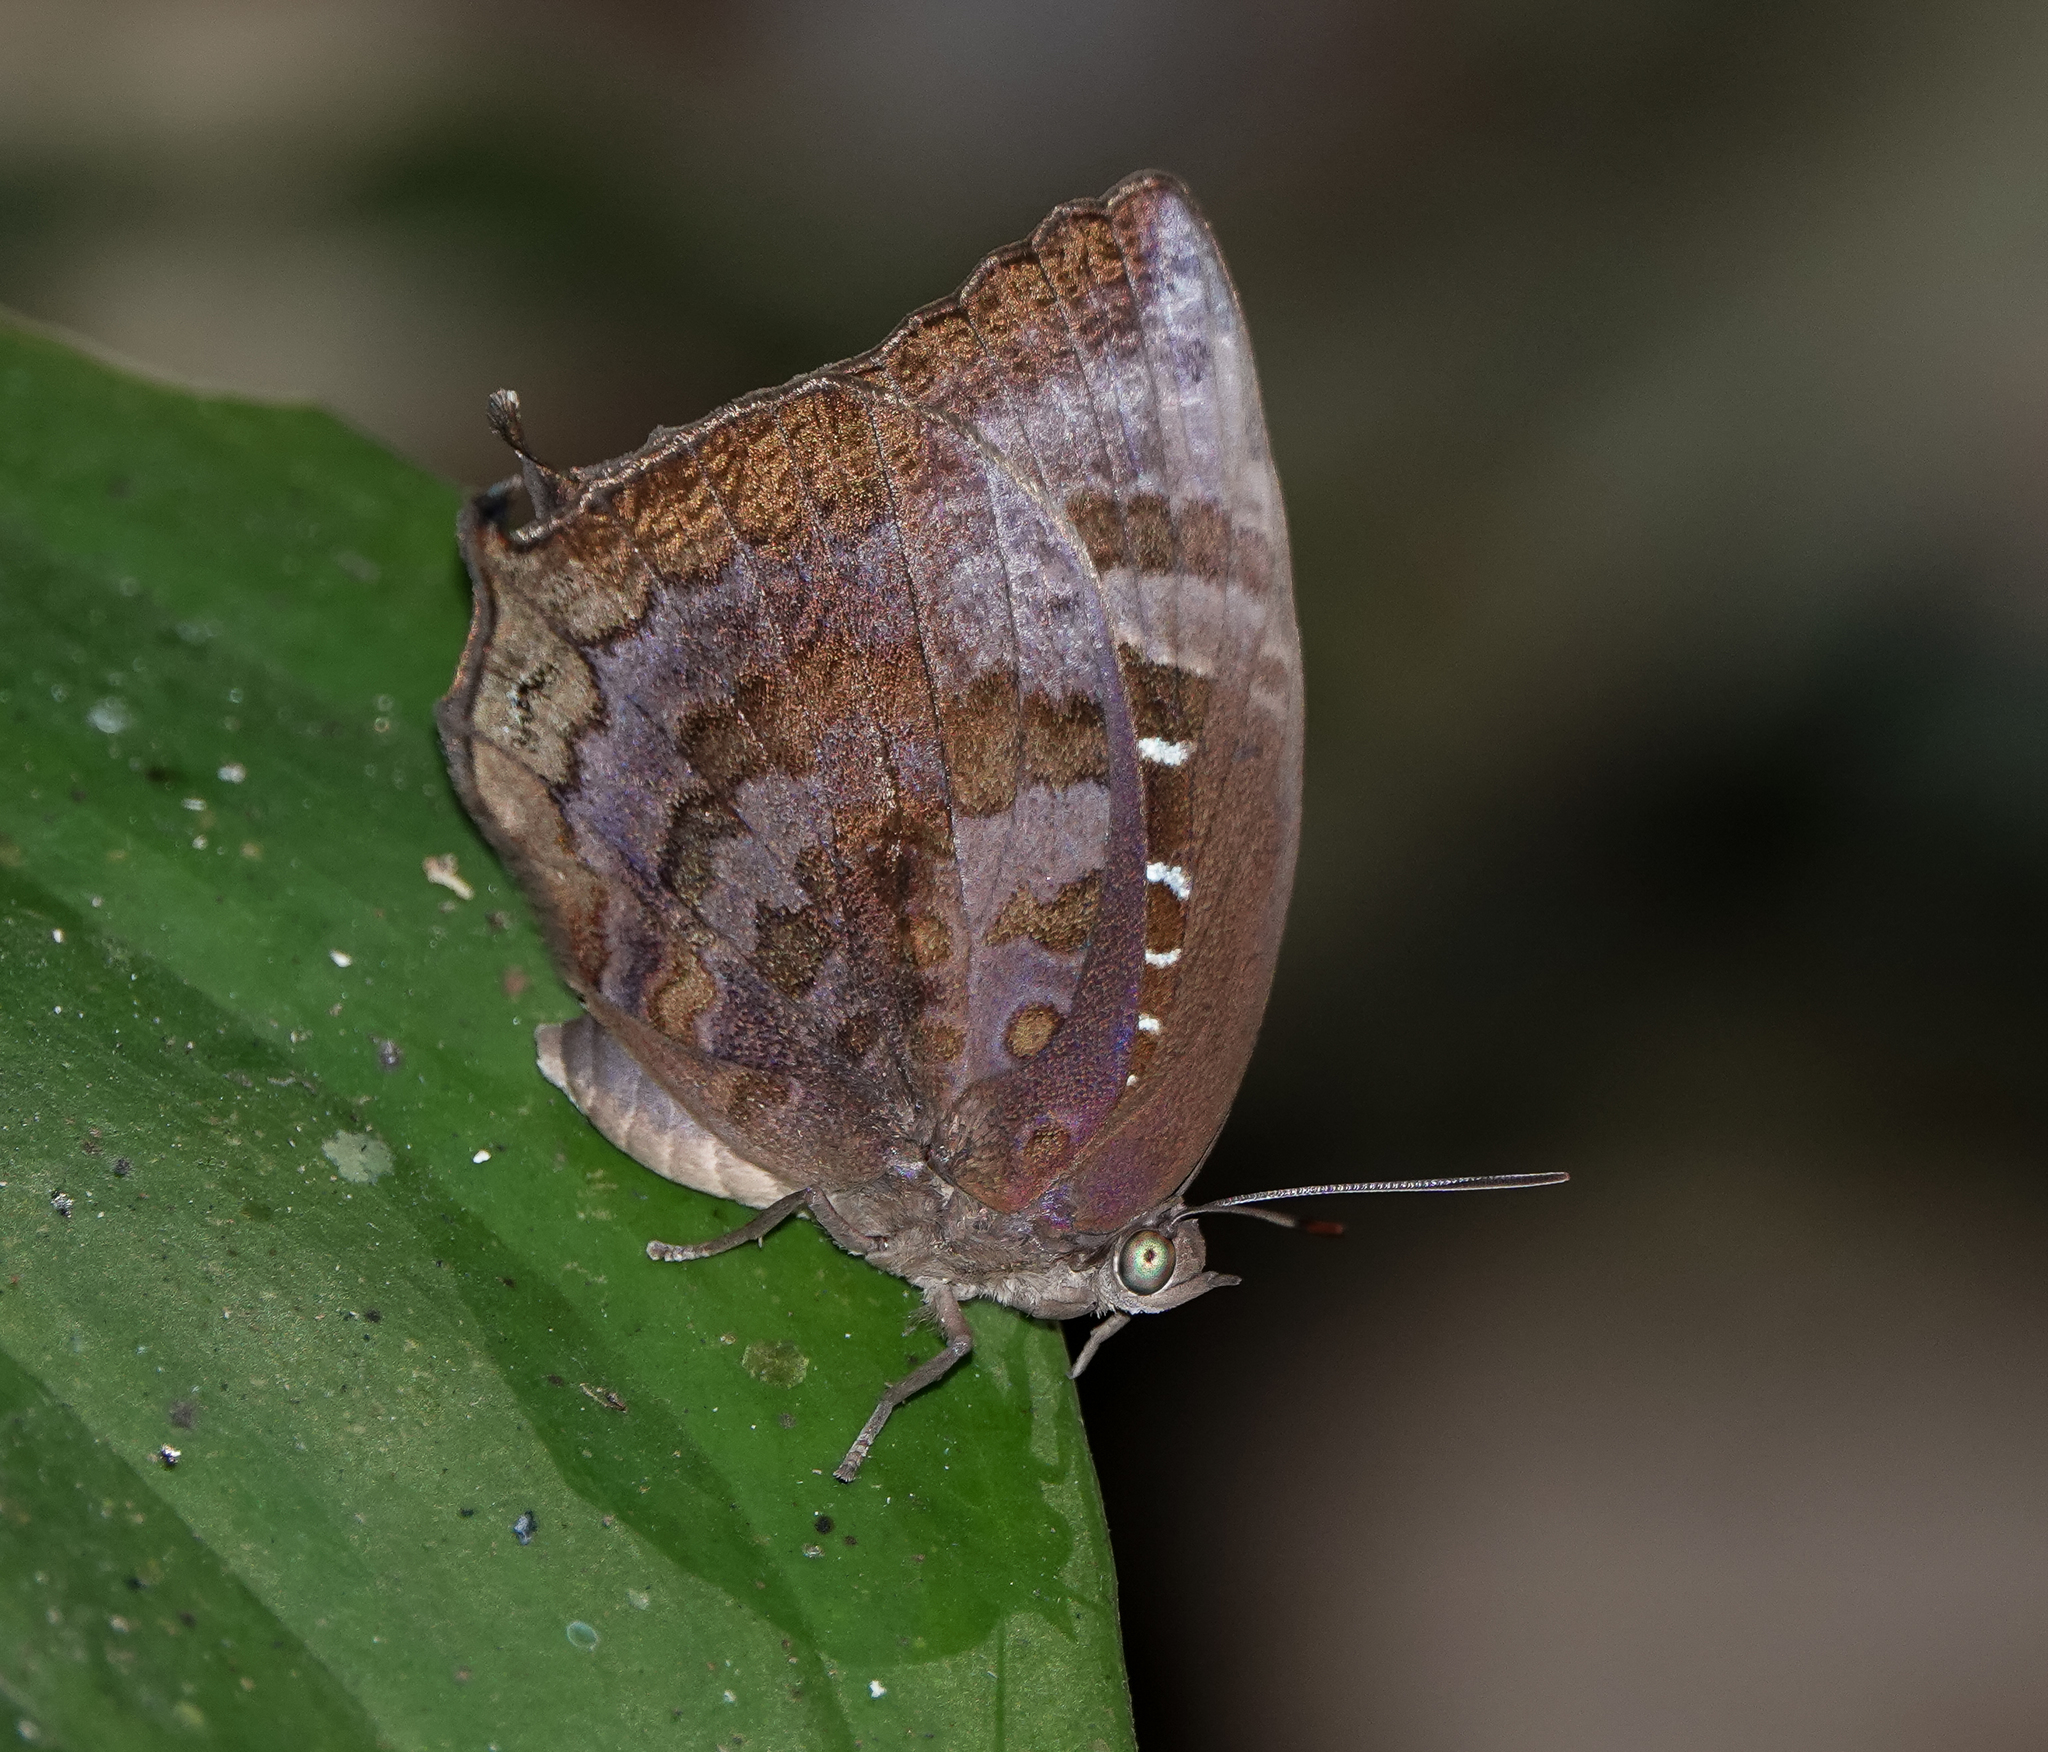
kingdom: Animalia
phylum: Arthropoda
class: Insecta
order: Lepidoptera
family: Lycaenidae
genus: Arhopala
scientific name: Arhopala centaurus
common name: Dull oak-blue
